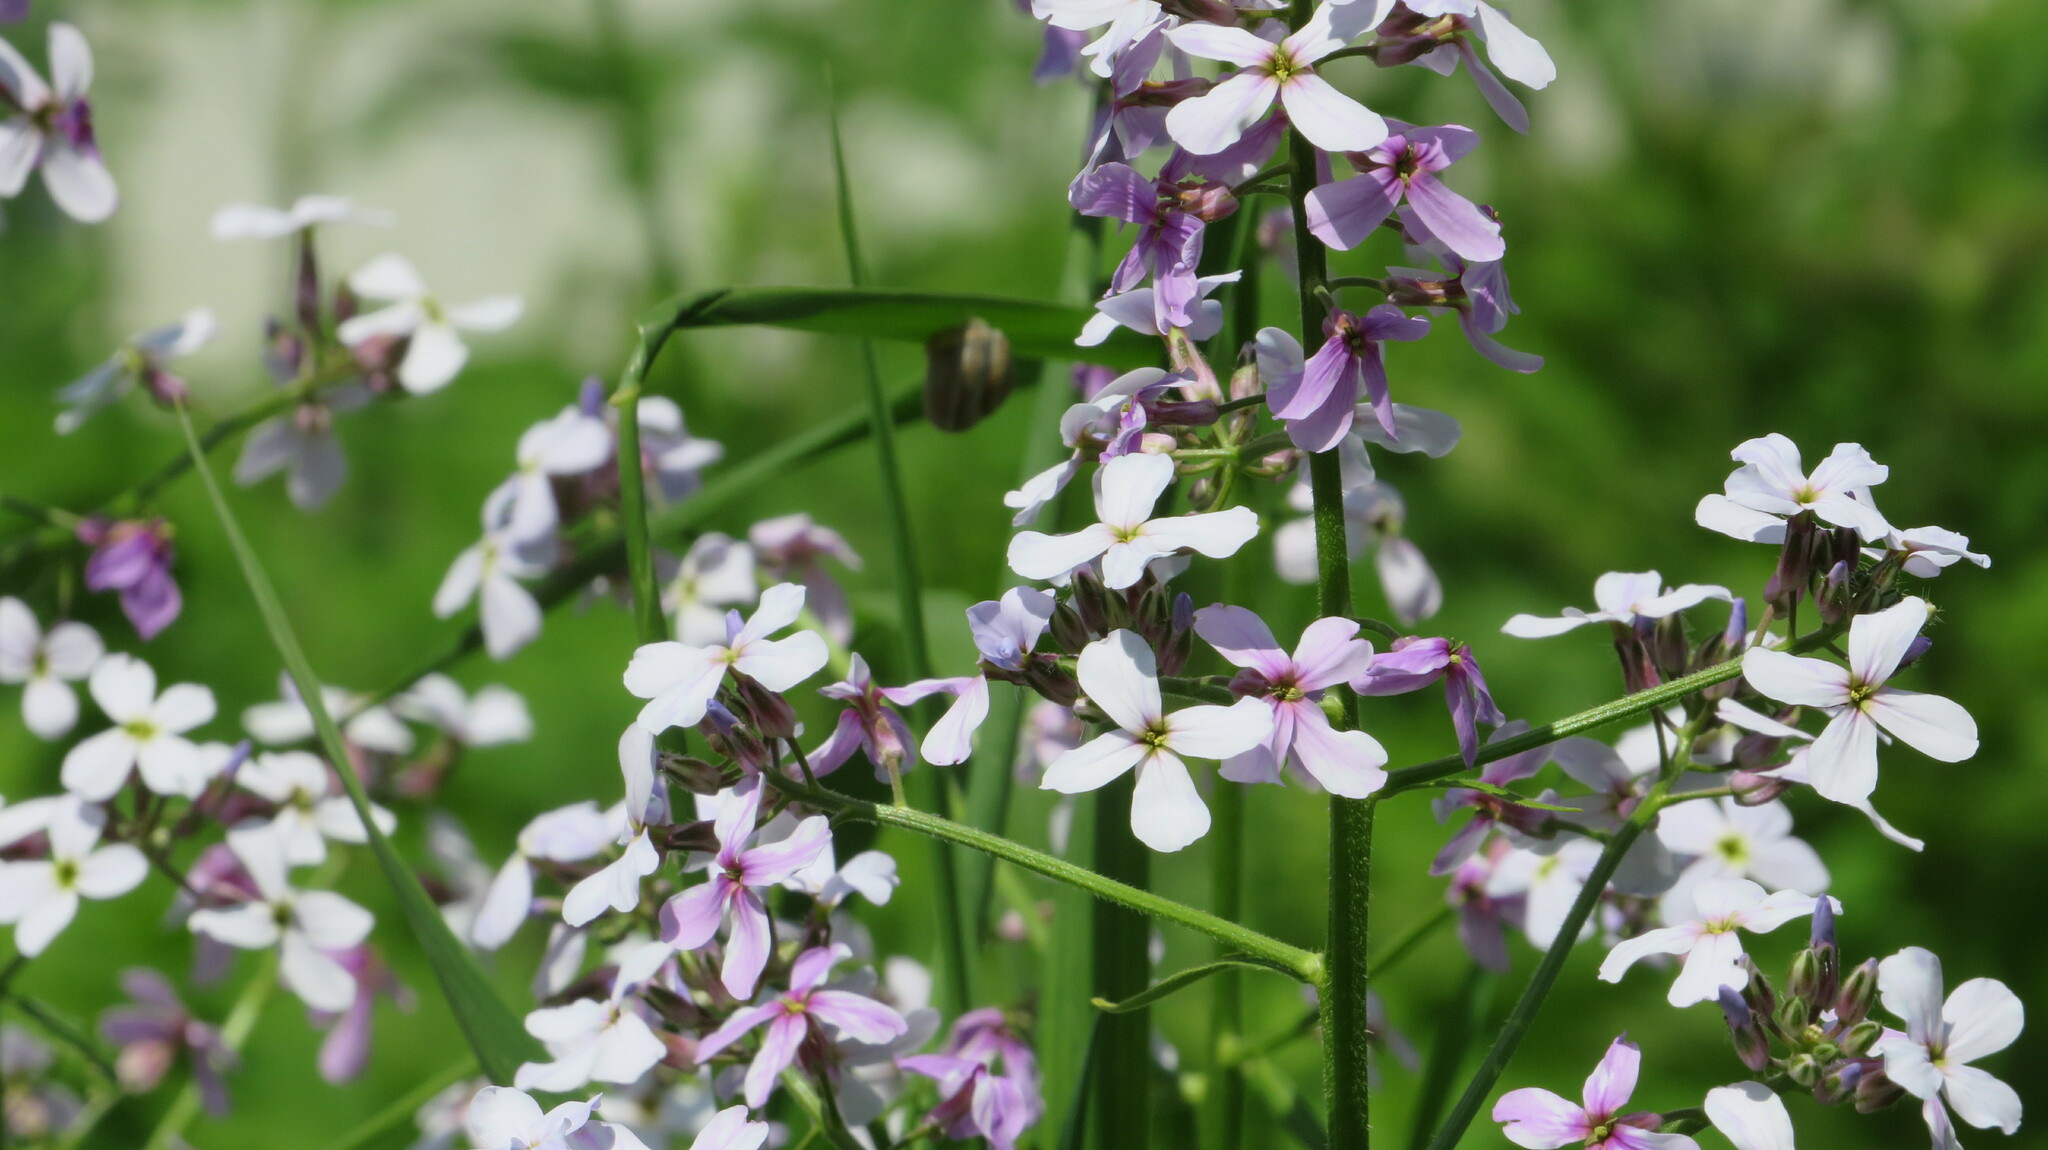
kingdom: Plantae
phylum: Tracheophyta
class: Magnoliopsida
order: Brassicales
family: Brassicaceae
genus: Hesperis
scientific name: Hesperis matronalis
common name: Dame's-violet
